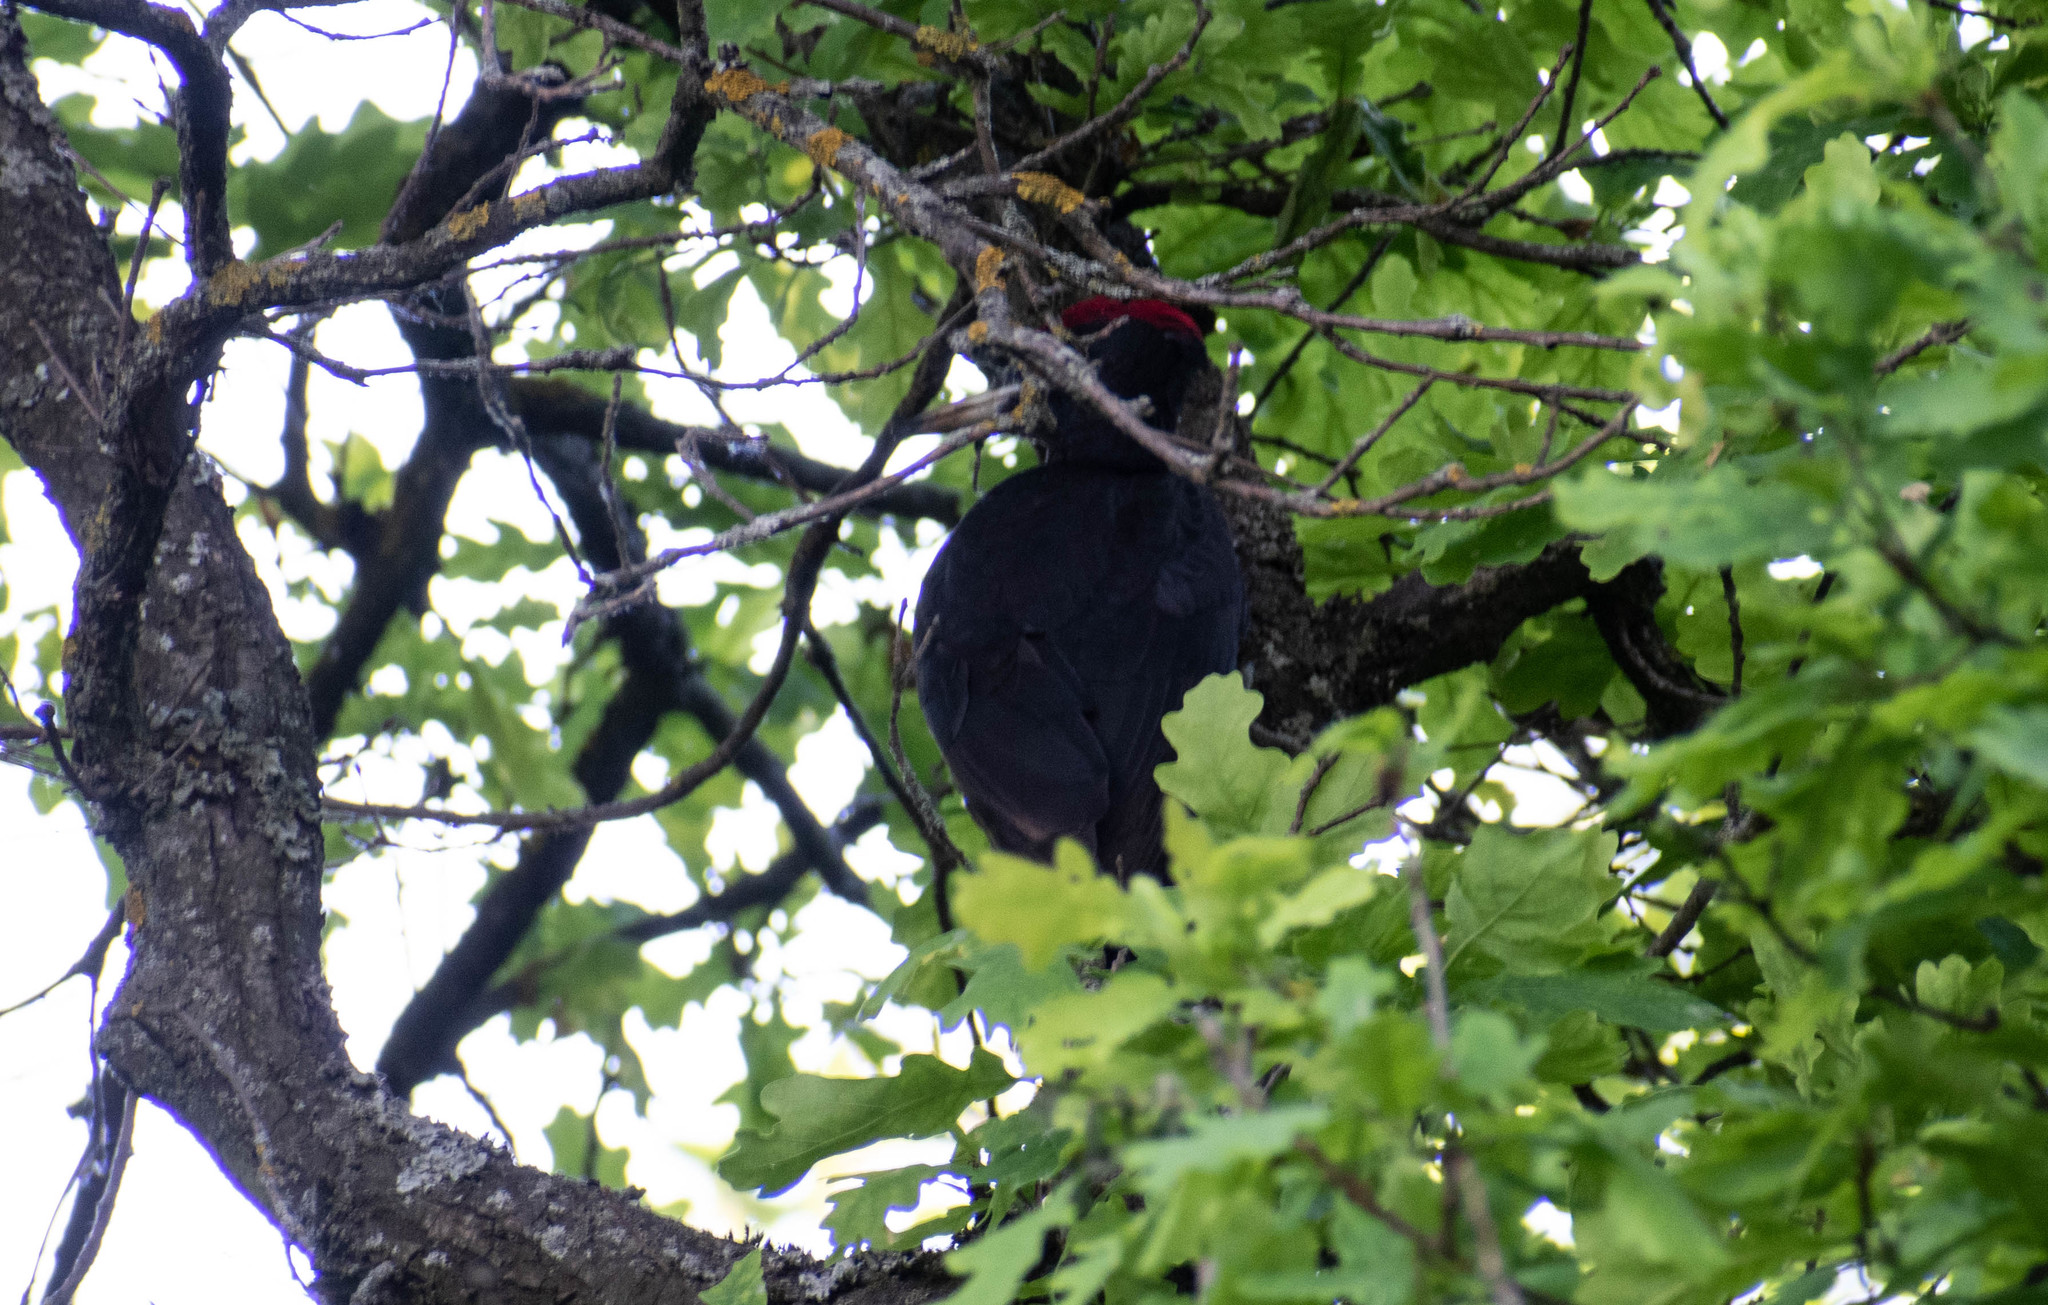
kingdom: Animalia
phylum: Chordata
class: Aves
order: Piciformes
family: Picidae
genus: Dryocopus
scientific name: Dryocopus martius
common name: Black woodpecker
